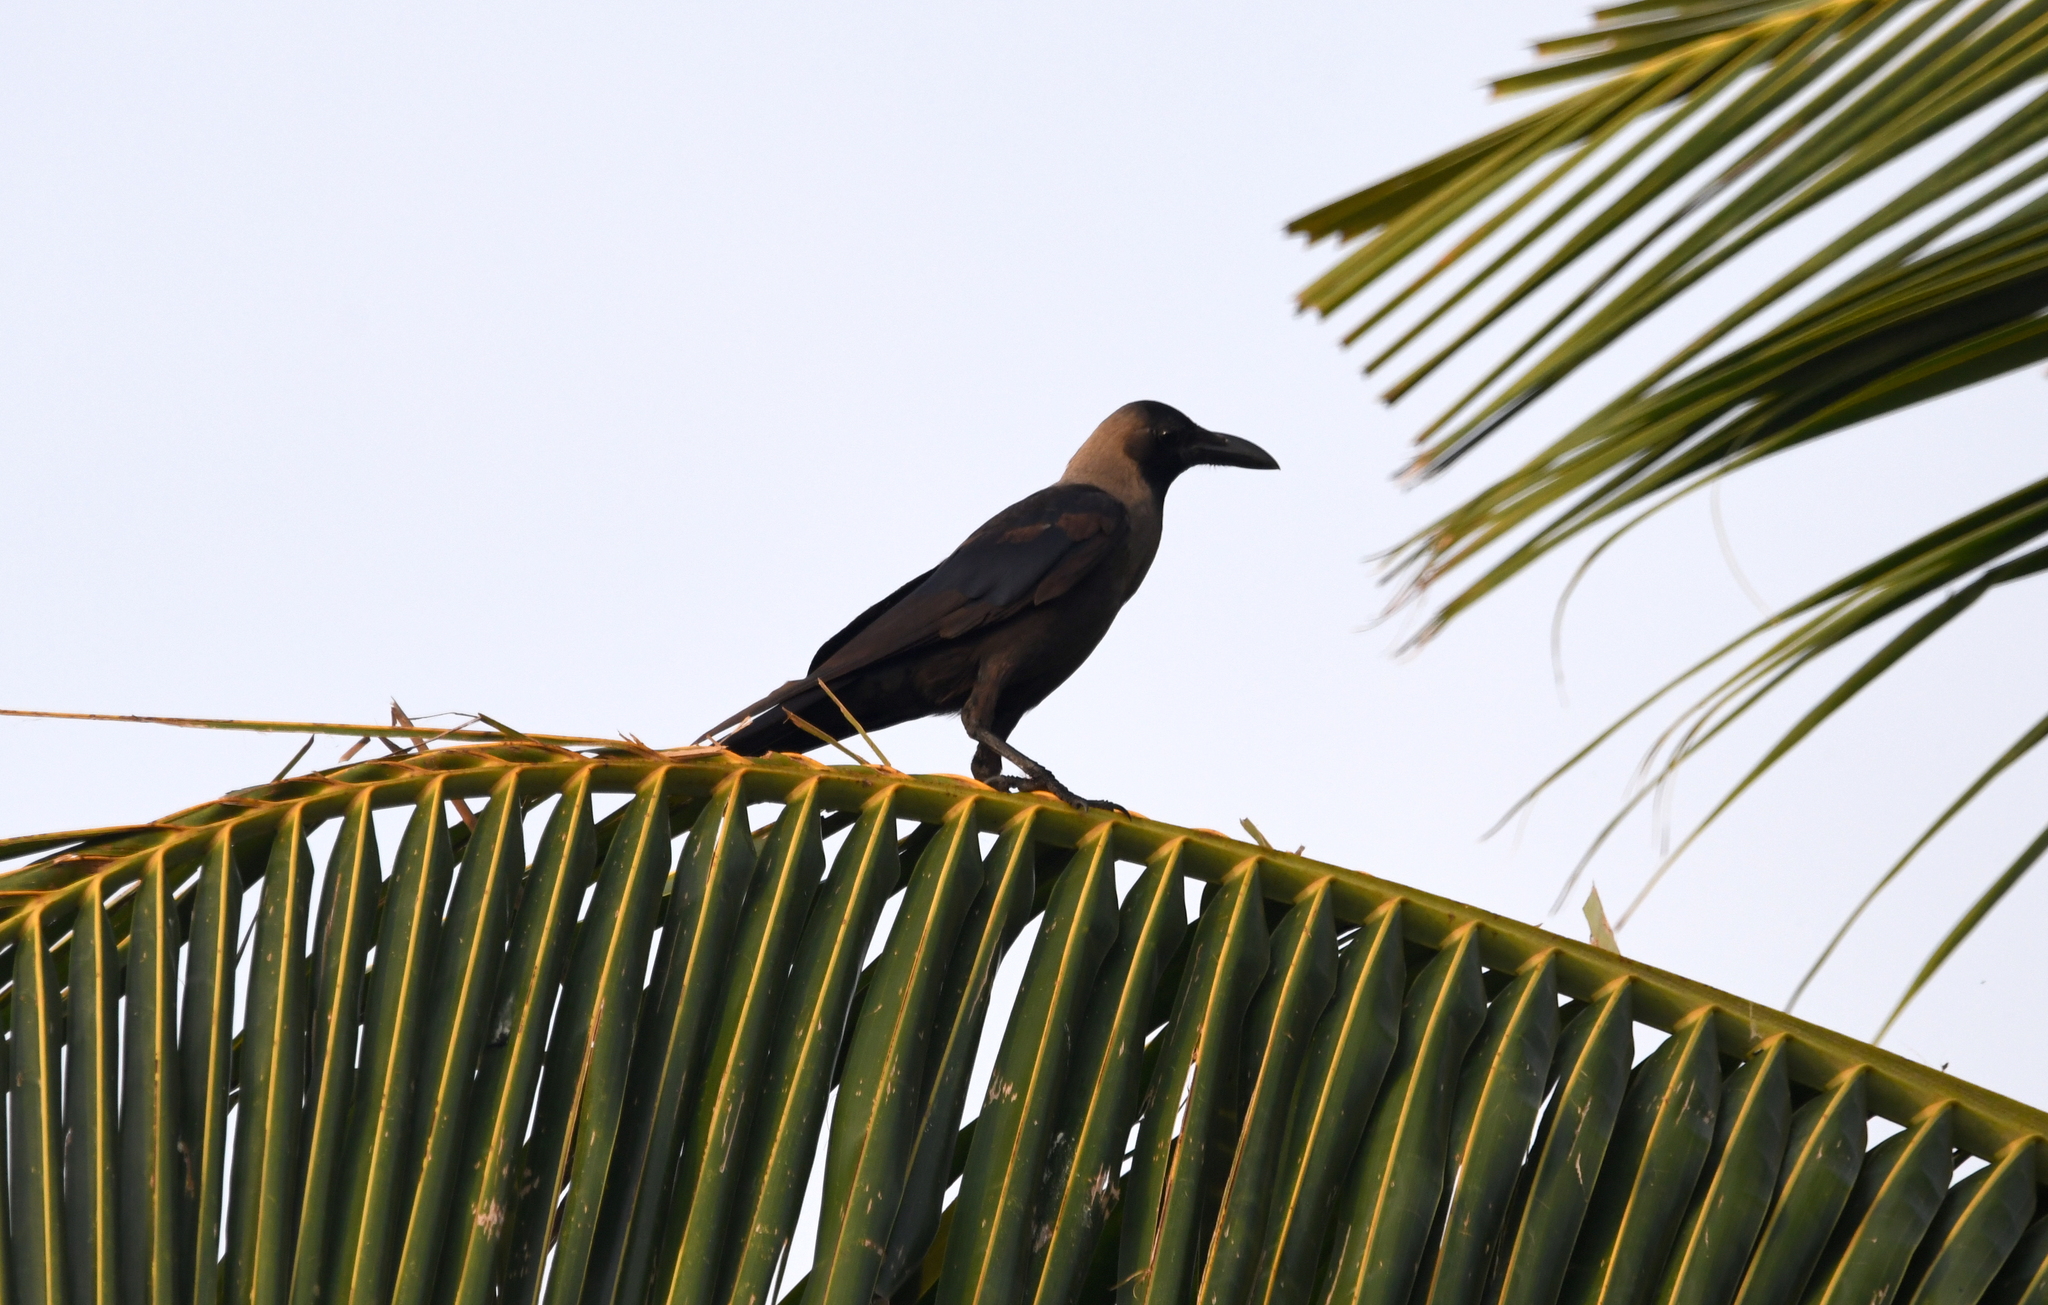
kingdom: Animalia
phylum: Chordata
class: Aves
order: Passeriformes
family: Corvidae
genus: Corvus
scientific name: Corvus splendens
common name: House crow
